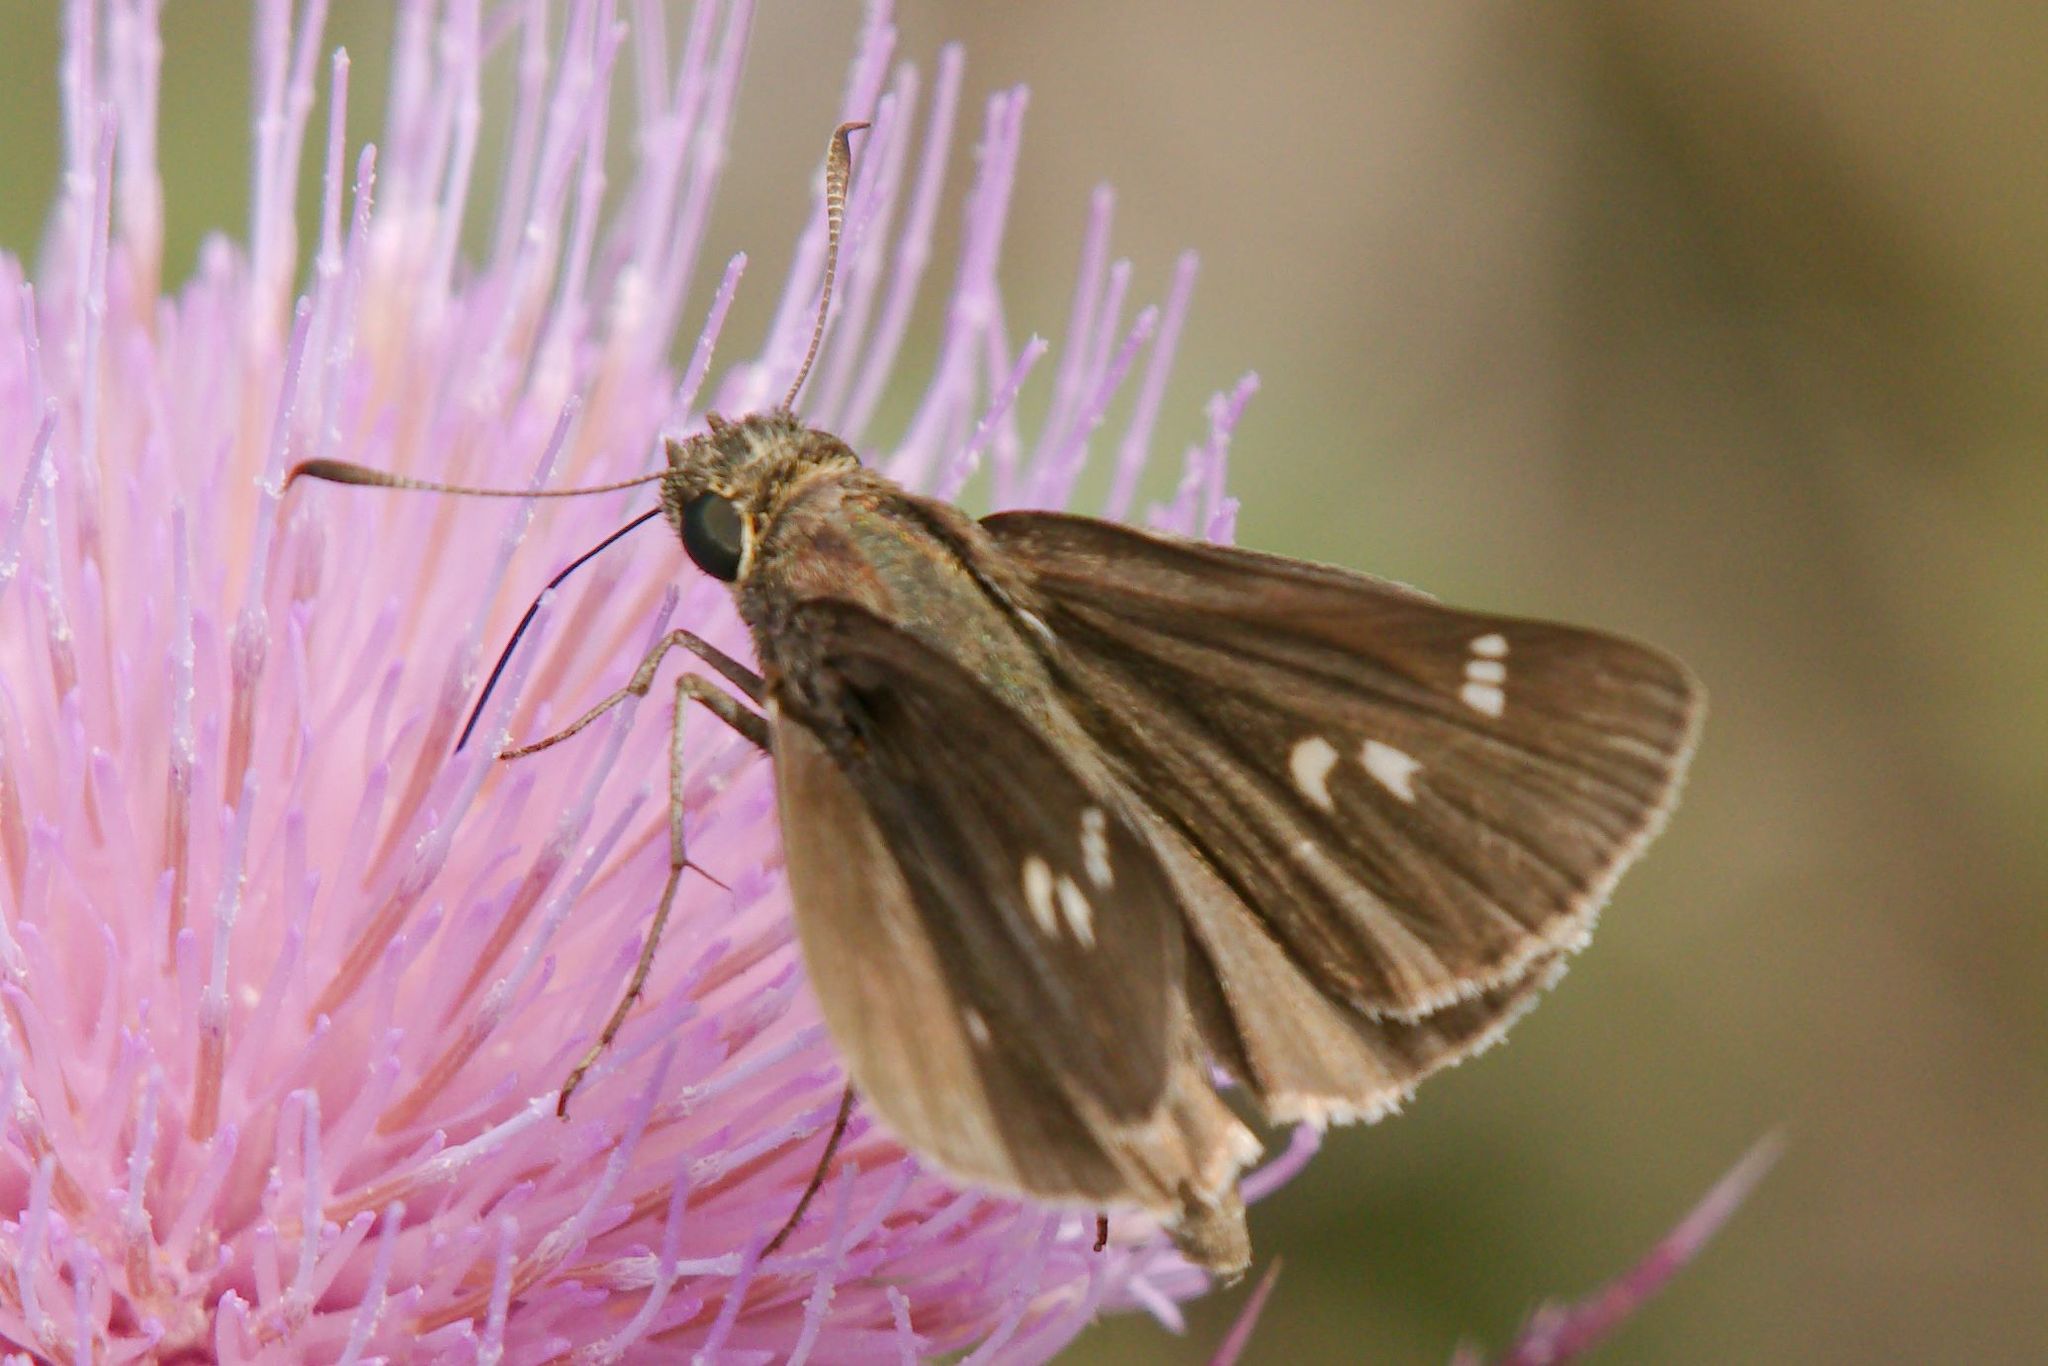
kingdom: Animalia
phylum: Arthropoda
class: Insecta
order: Lepidoptera
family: Hesperiidae
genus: Oligoria
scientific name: Oligoria maculata
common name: Twin-spot skipper
